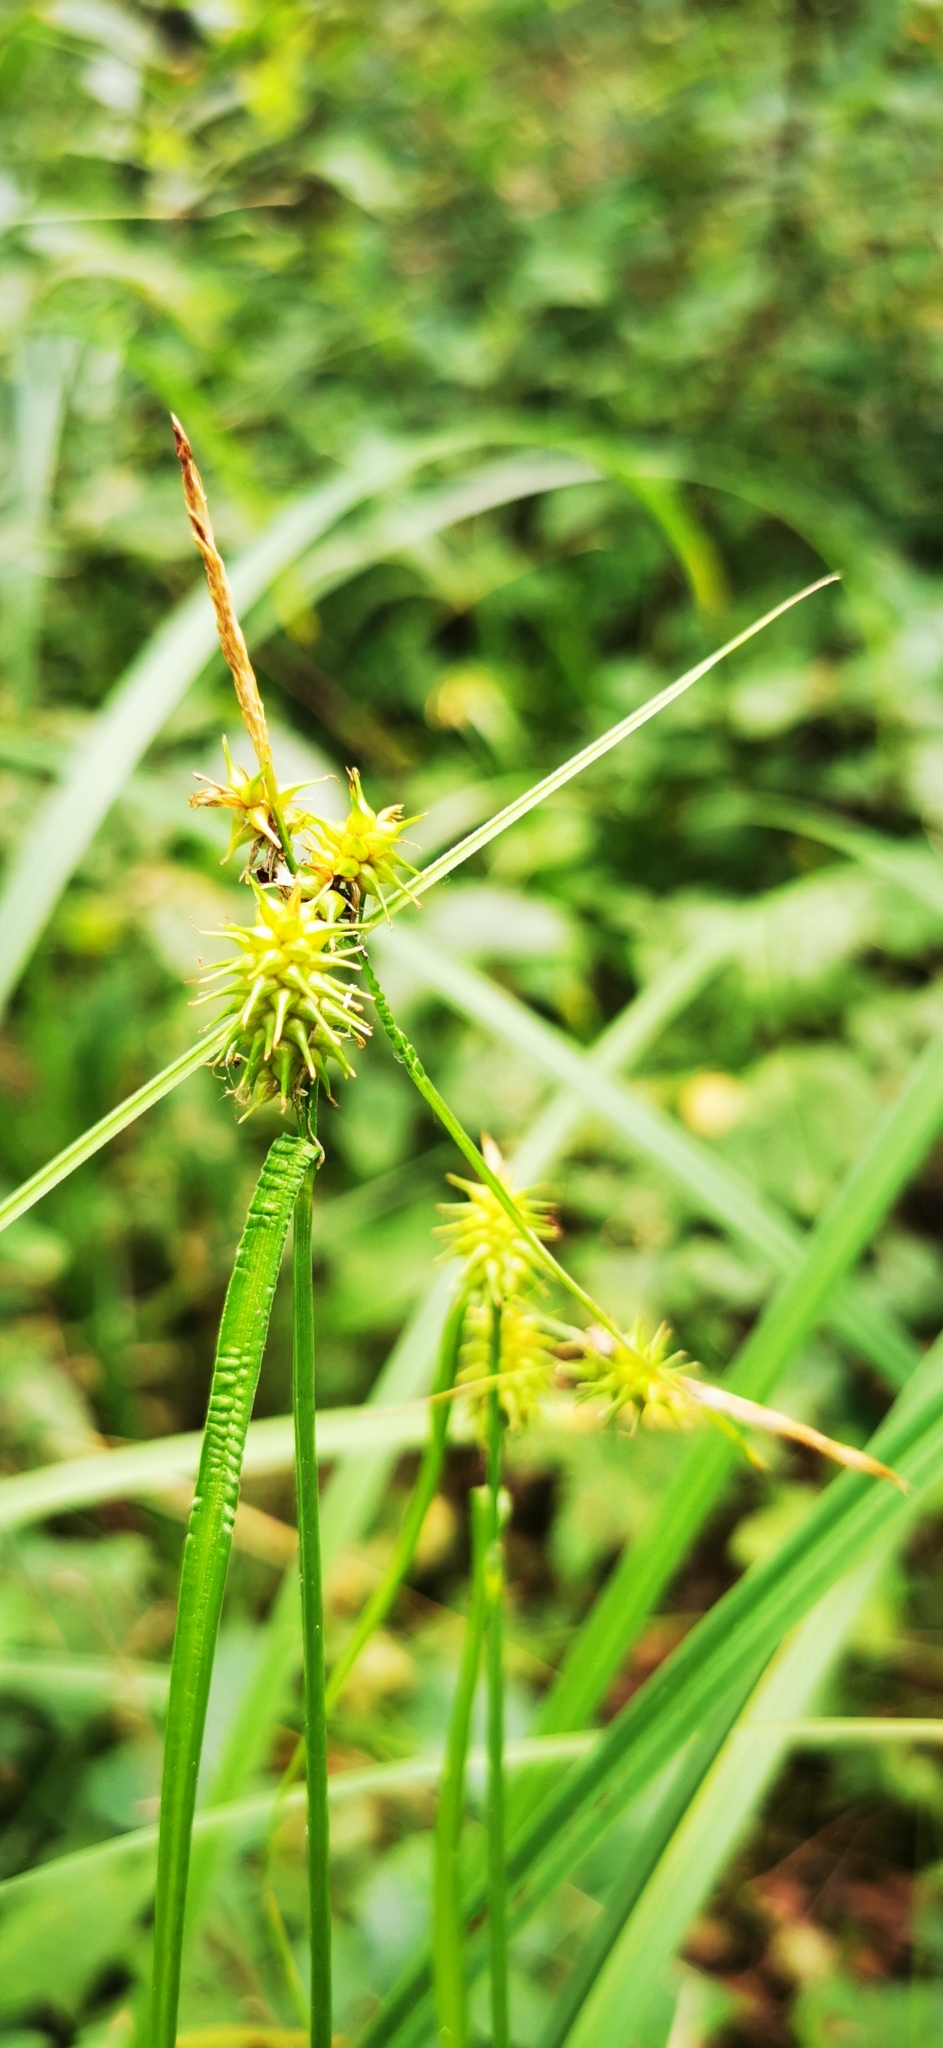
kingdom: Plantae
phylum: Tracheophyta
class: Liliopsida
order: Poales
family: Cyperaceae
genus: Carex
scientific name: Carex flava
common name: Large yellow-sedge
